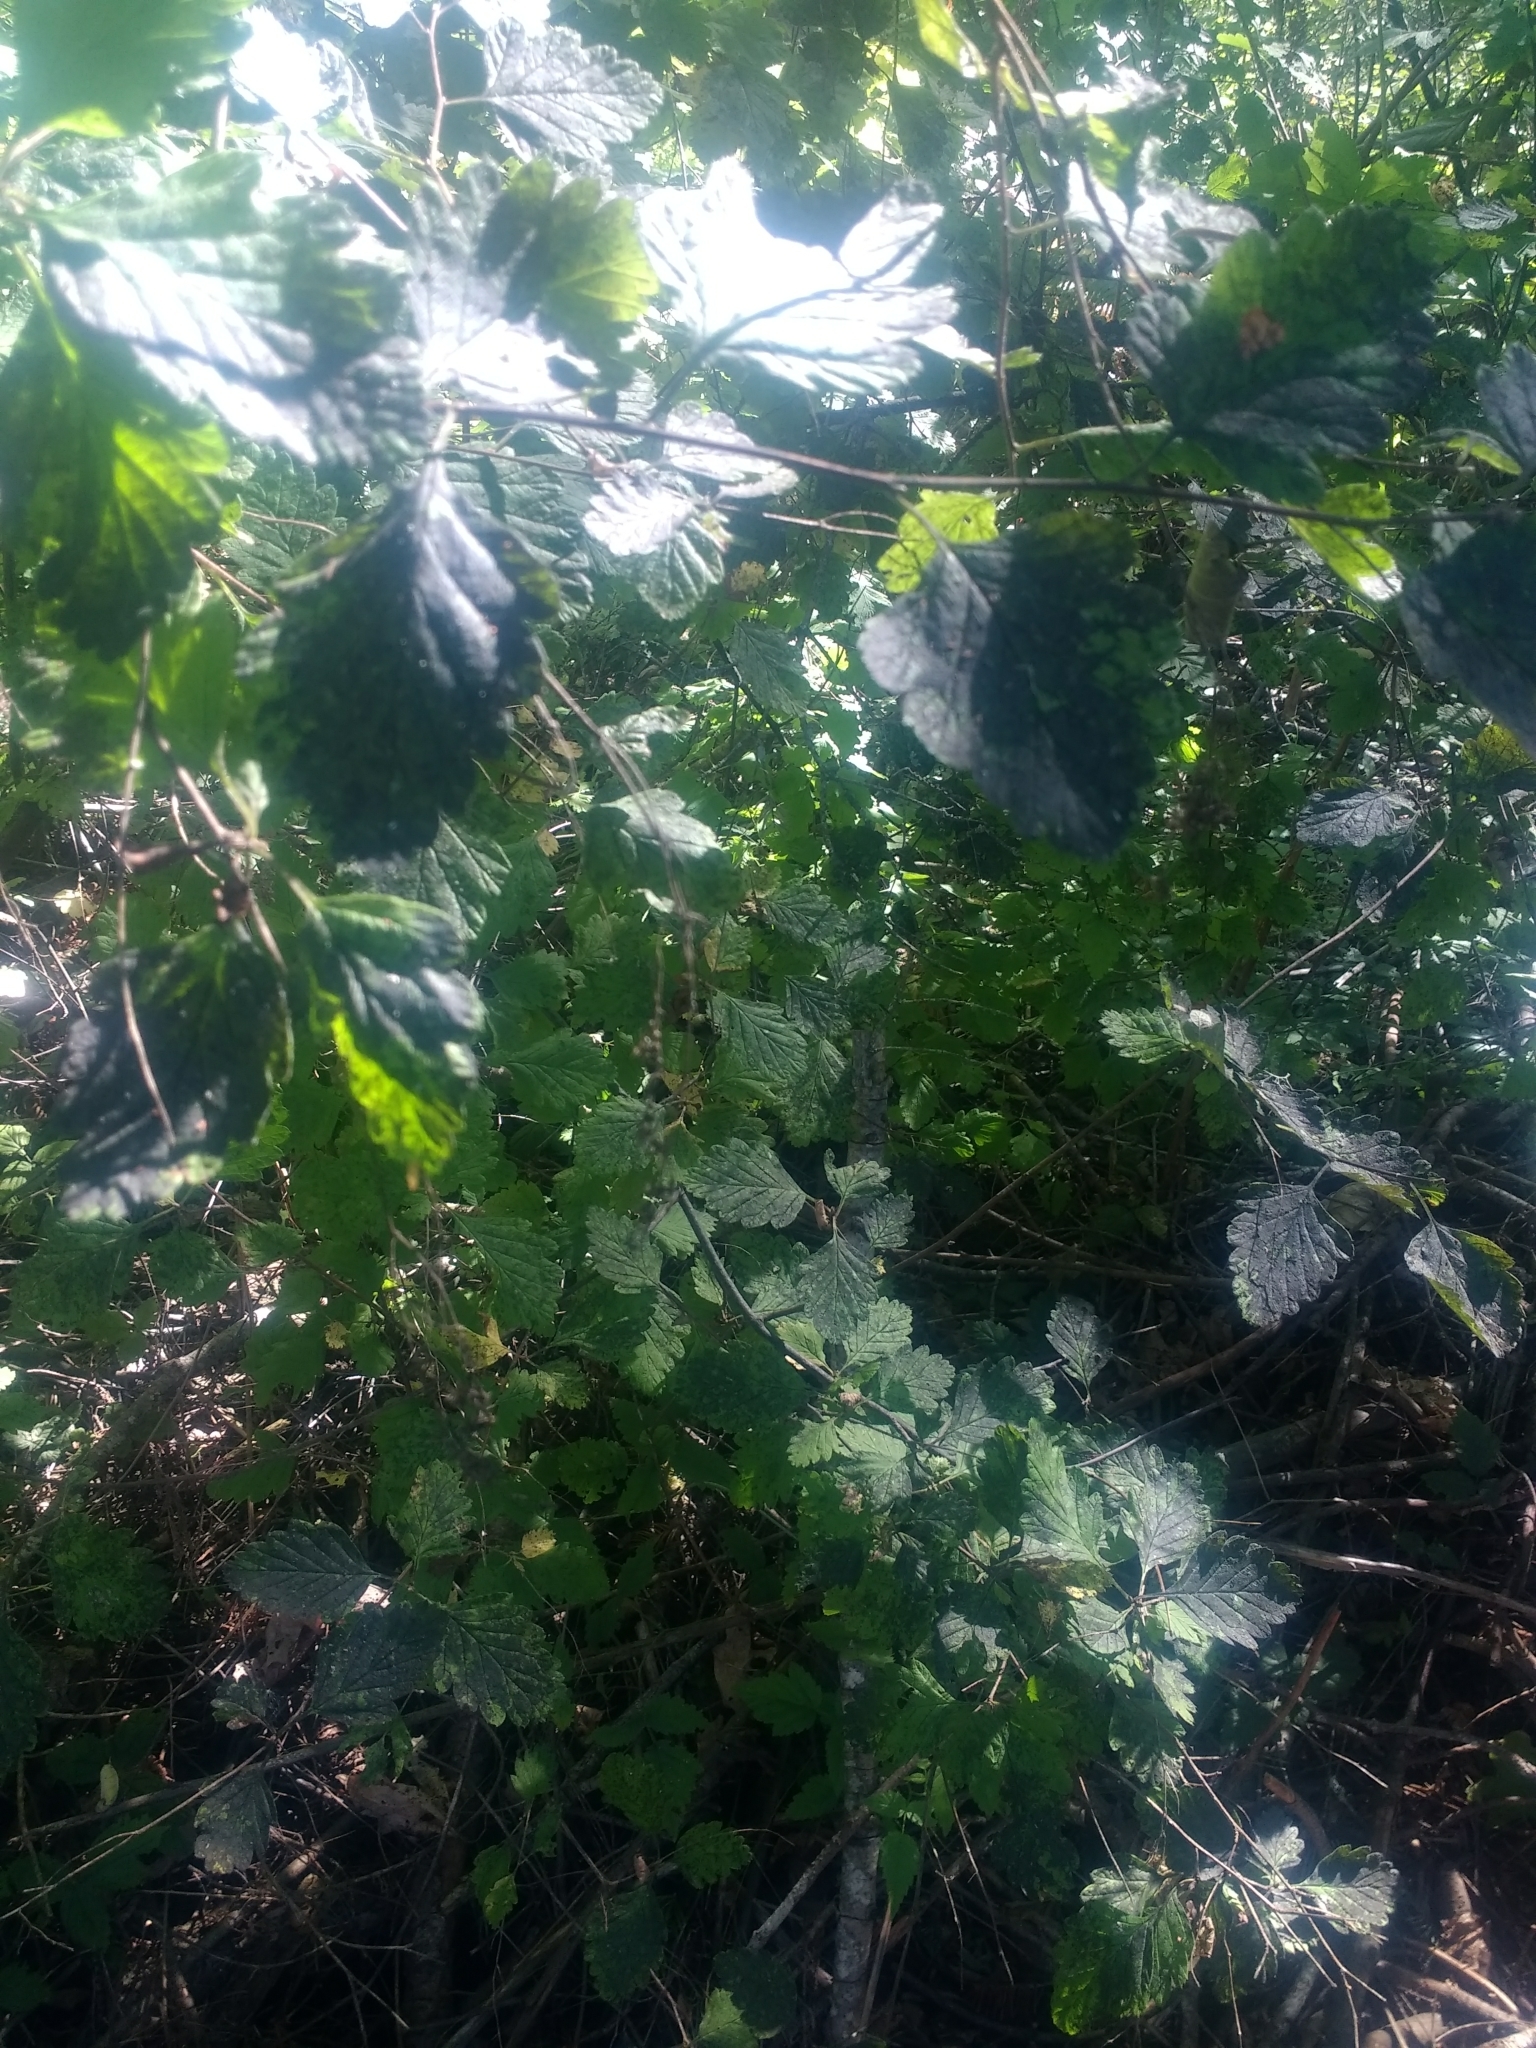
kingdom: Plantae
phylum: Tracheophyta
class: Magnoliopsida
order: Rosales
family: Rosaceae
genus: Holodiscus
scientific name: Holodiscus discolor
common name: Oceanspray
